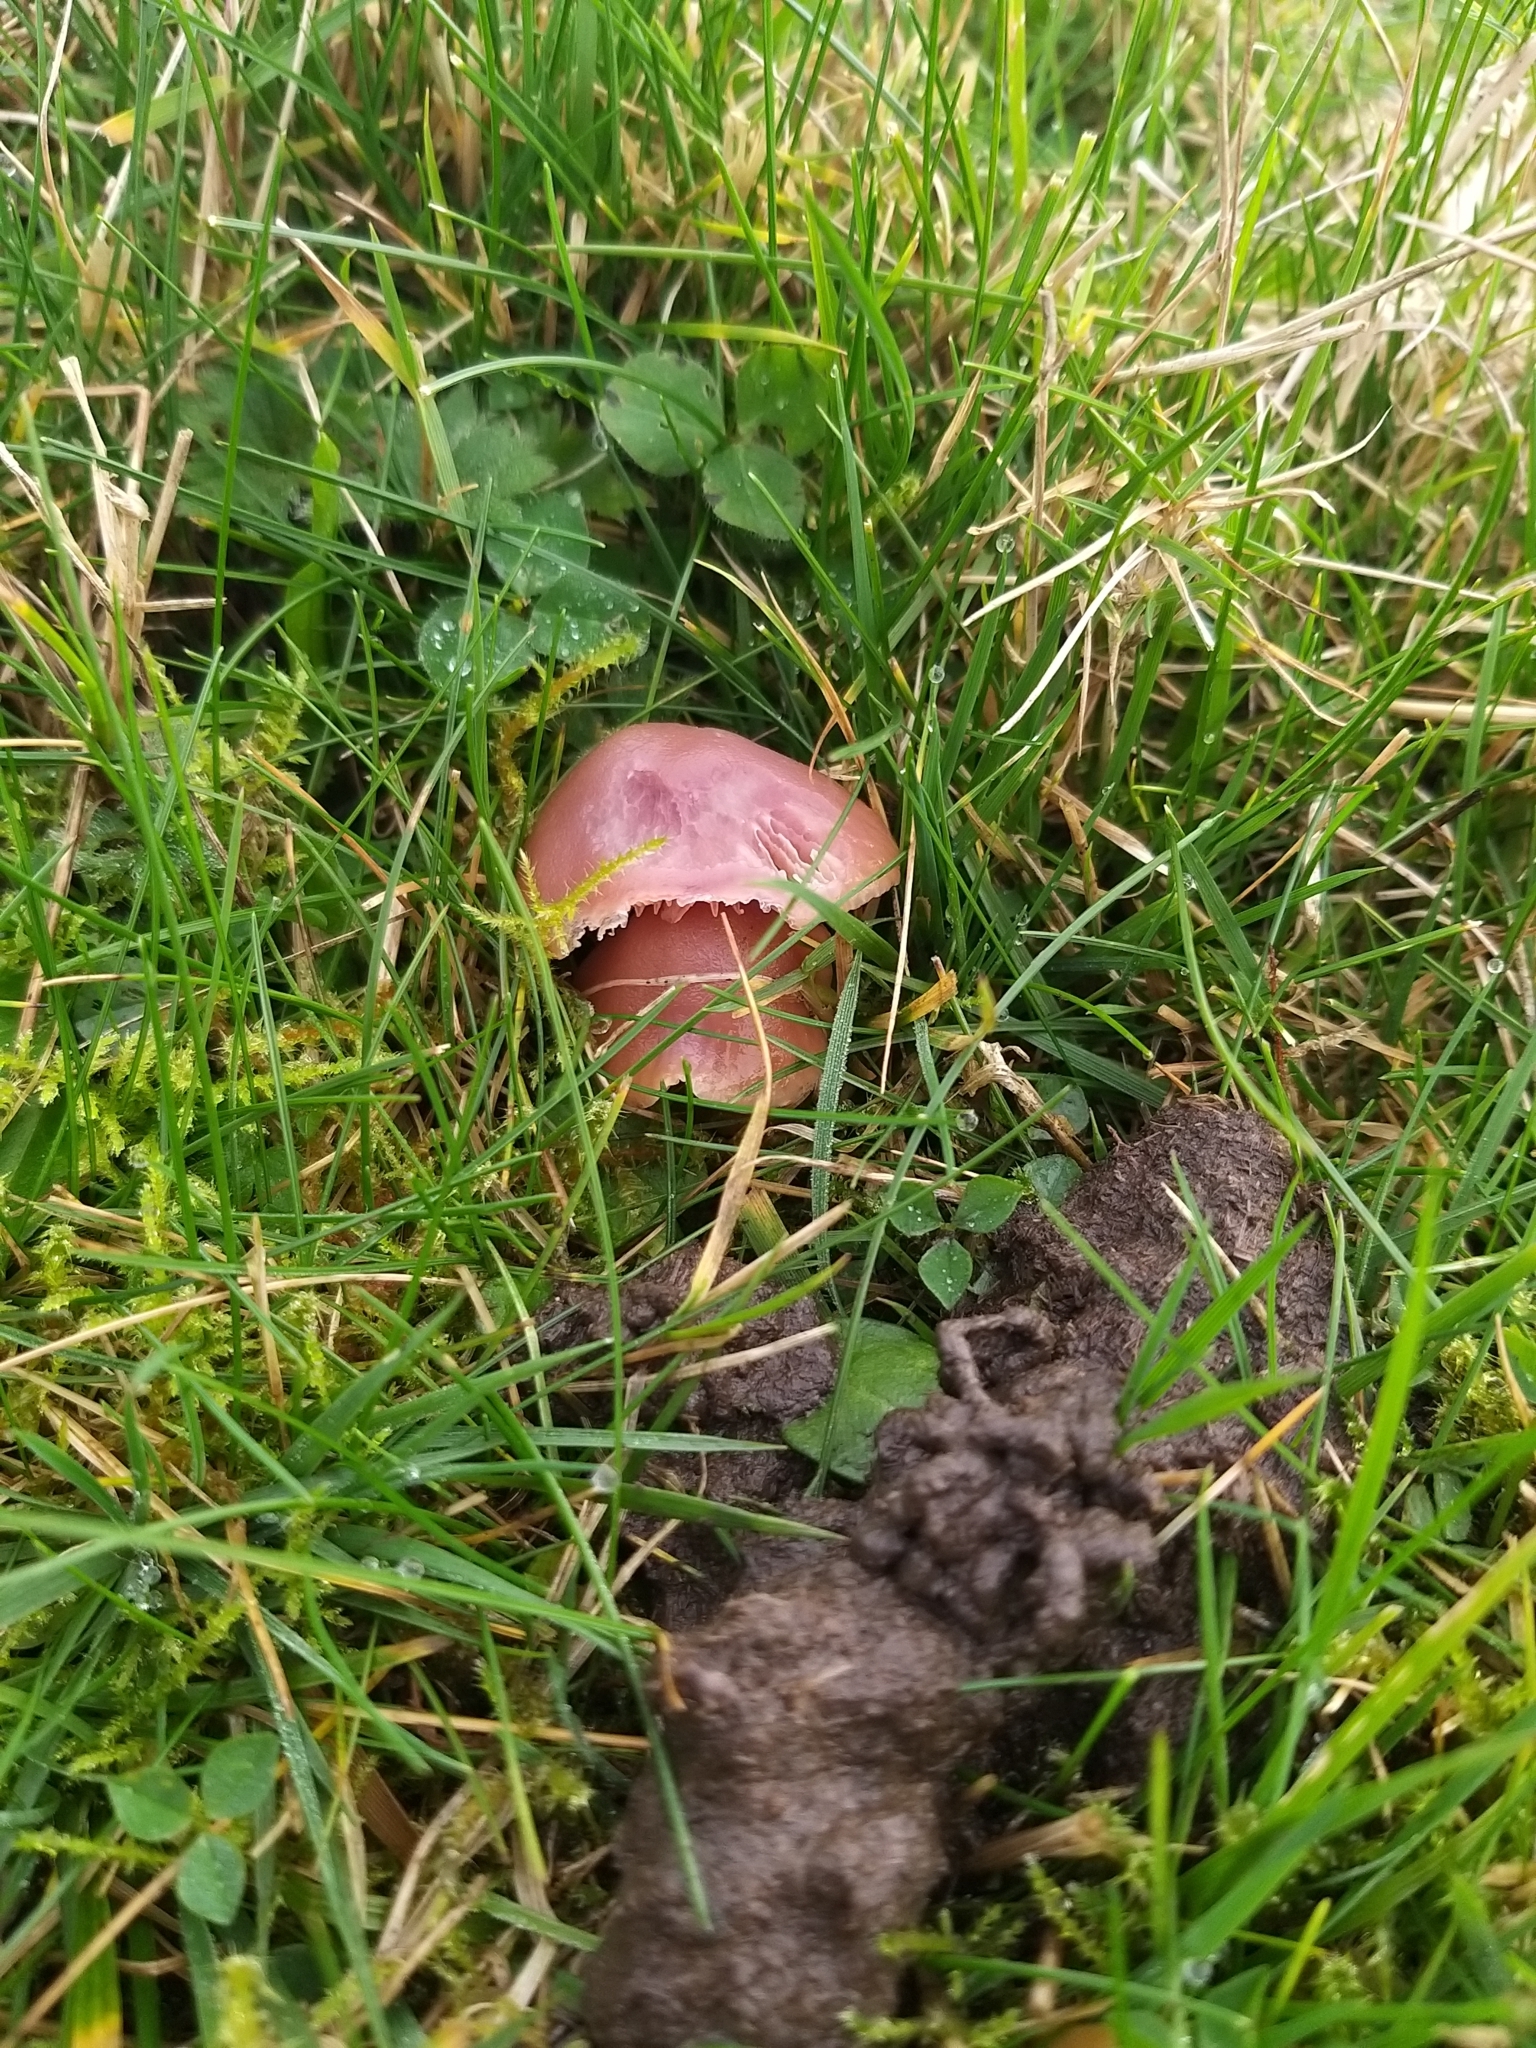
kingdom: Fungi
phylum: Basidiomycota
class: Agaricomycetes
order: Agaricales
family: Hygrophoraceae
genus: Gliophorus
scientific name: Gliophorus reginae
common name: Jubilee waxcap
